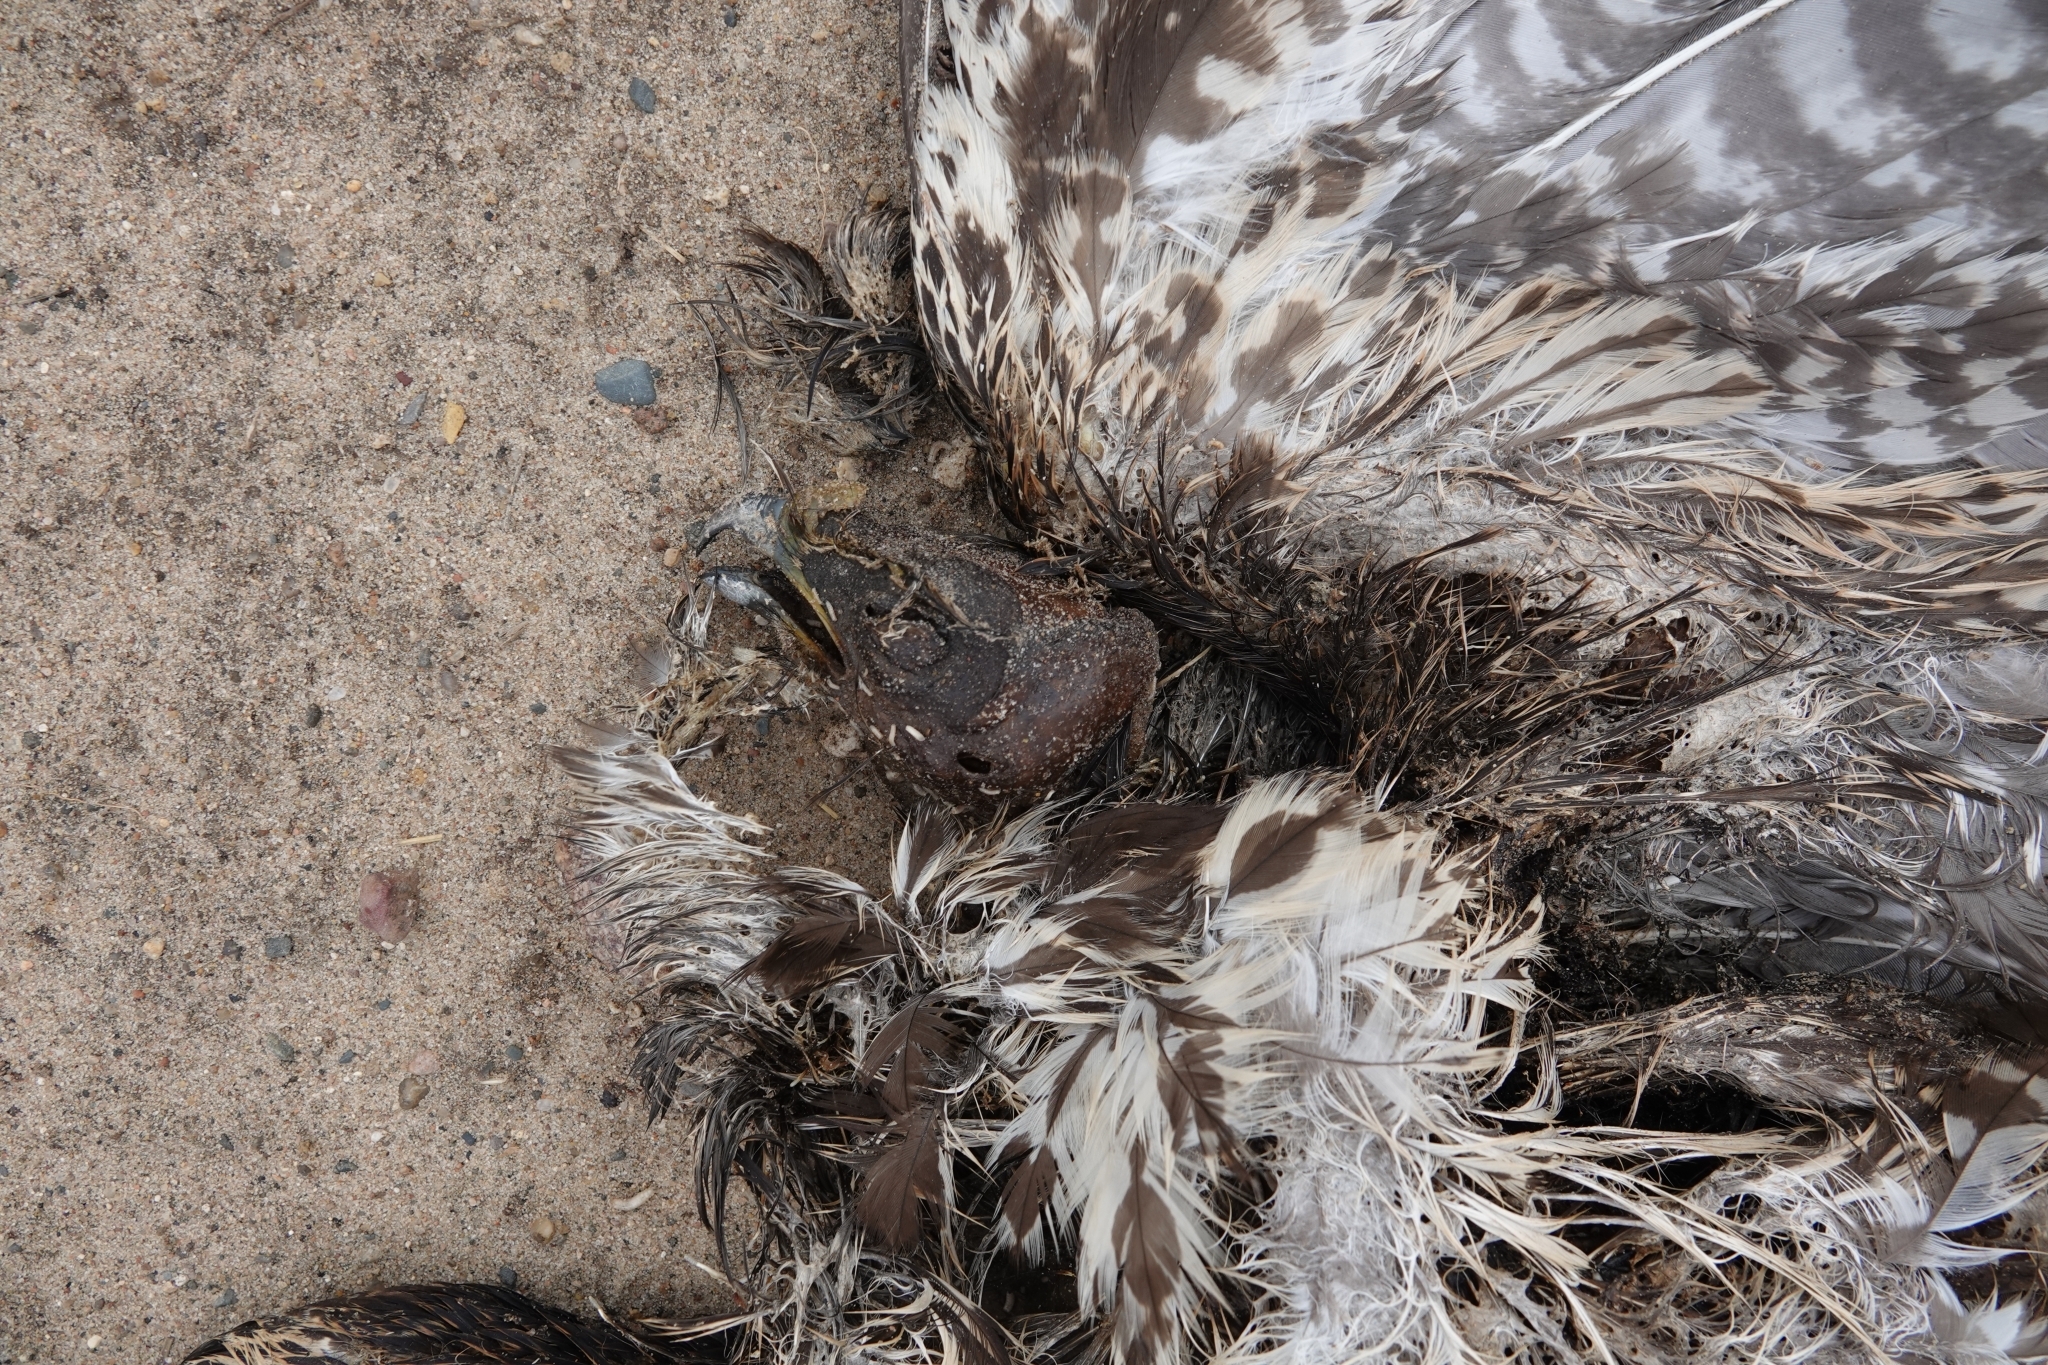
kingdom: Animalia
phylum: Chordata
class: Aves
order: Accipitriformes
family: Accipitridae
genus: Buteo
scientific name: Buteo buteo
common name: Common buzzard
